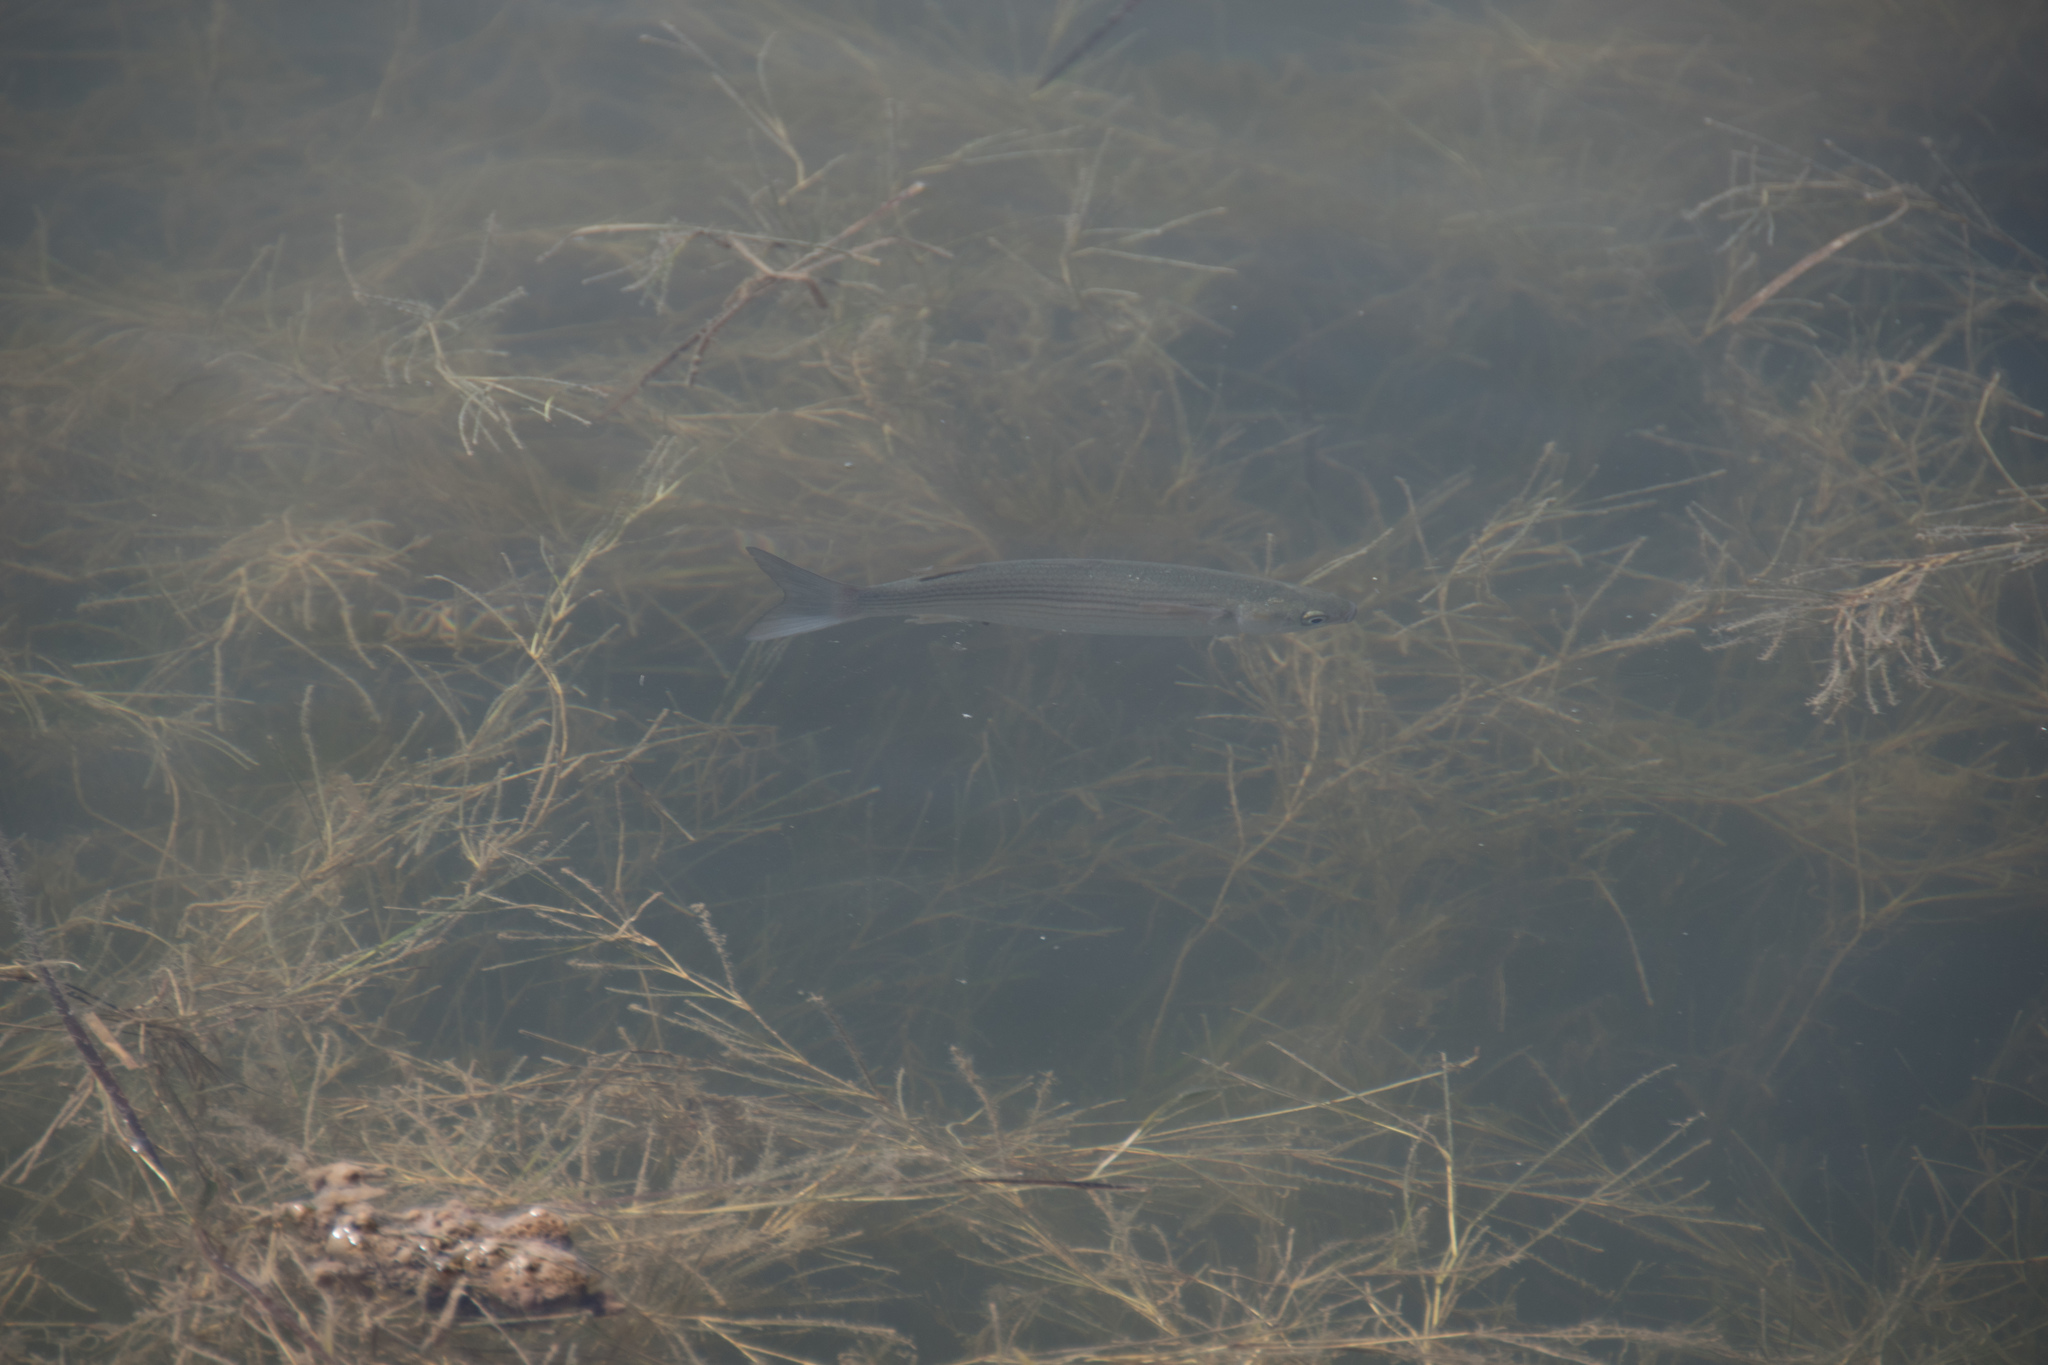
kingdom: Animalia
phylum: Chordata
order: Mugiliformes
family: Mugilidae
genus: Chelon
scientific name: Chelon
